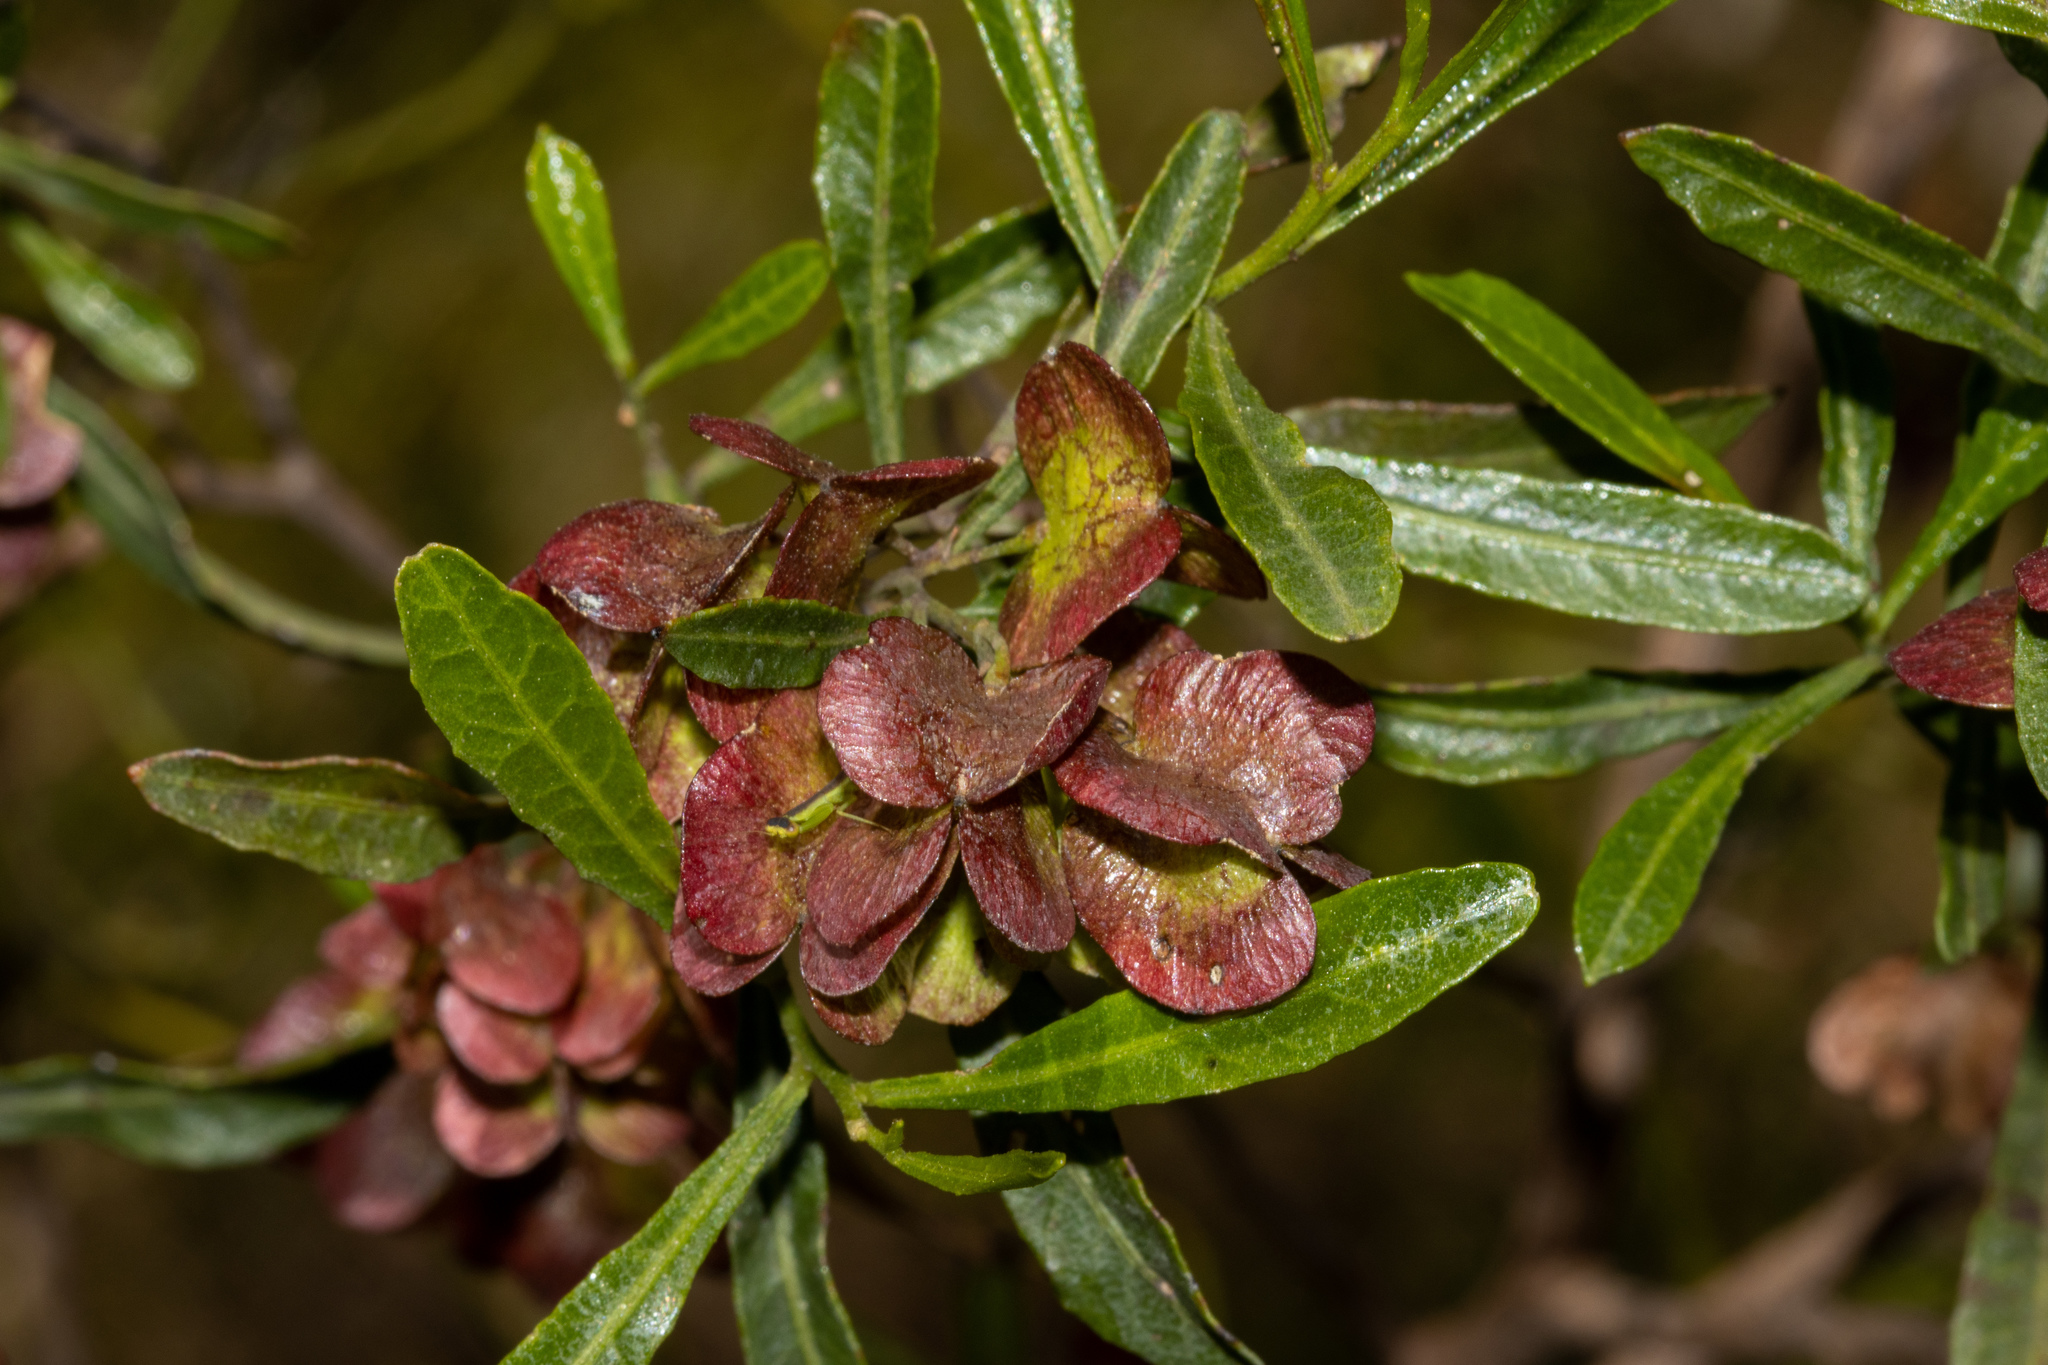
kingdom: Plantae
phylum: Tracheophyta
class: Magnoliopsida
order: Sapindales
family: Sapindaceae
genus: Dodonaea
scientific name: Dodonaea viscosa
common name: Hopbush
